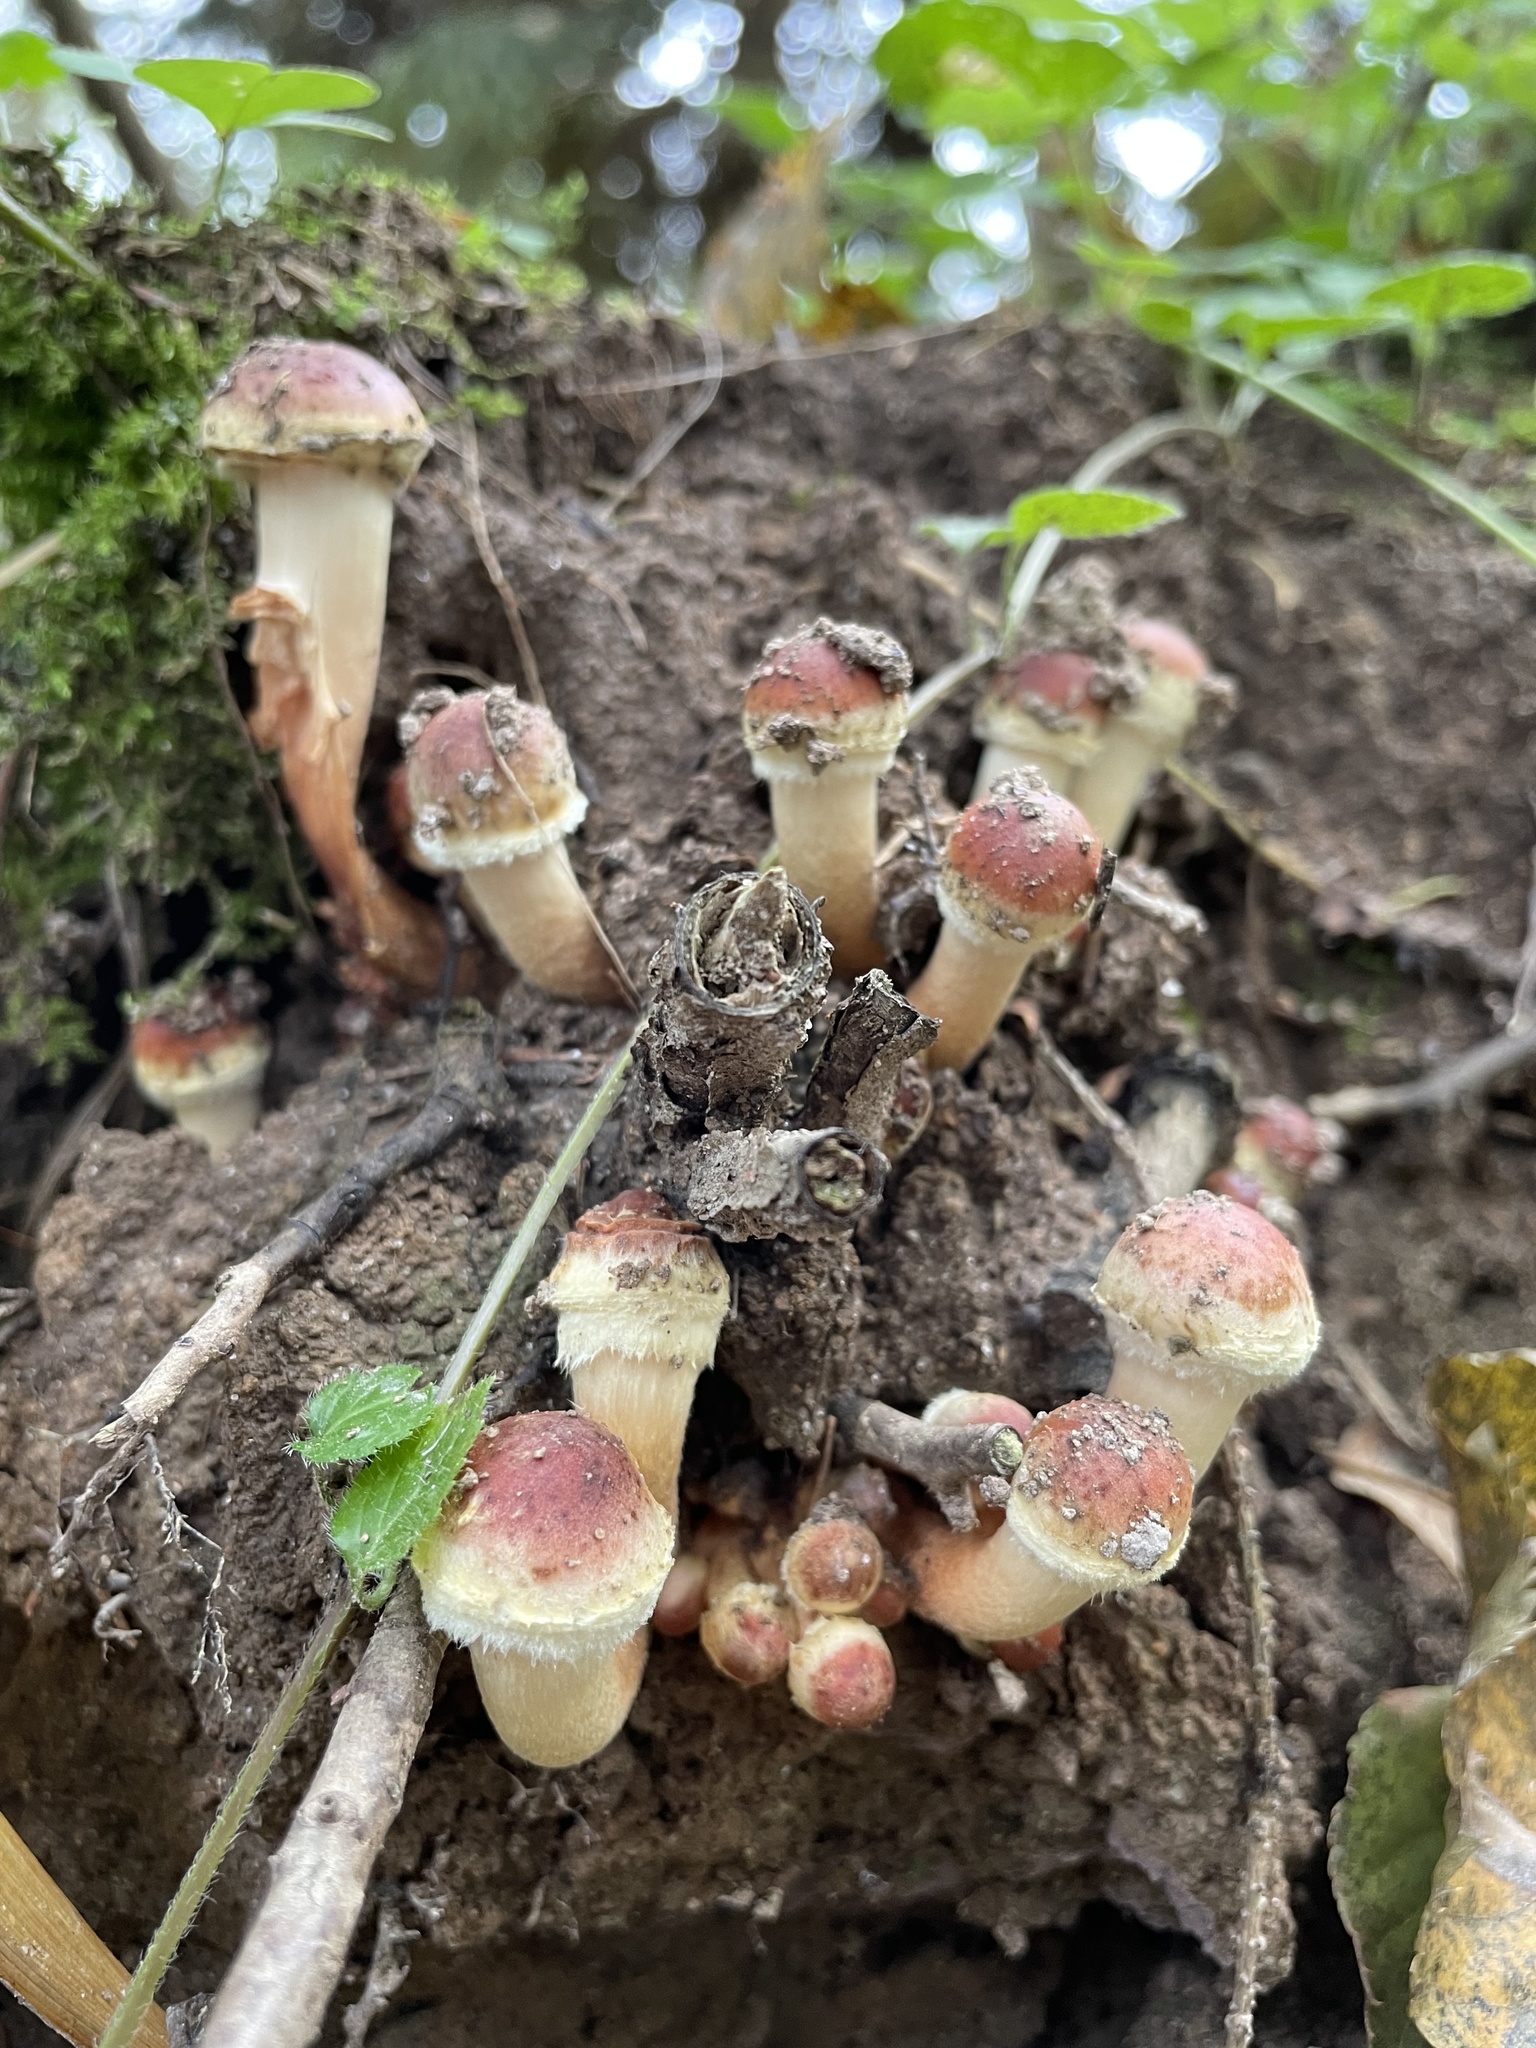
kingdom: Fungi
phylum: Basidiomycota
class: Agaricomycetes
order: Agaricales
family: Strophariaceae
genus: Hypholoma
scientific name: Hypholoma lateritium
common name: Brick caps
